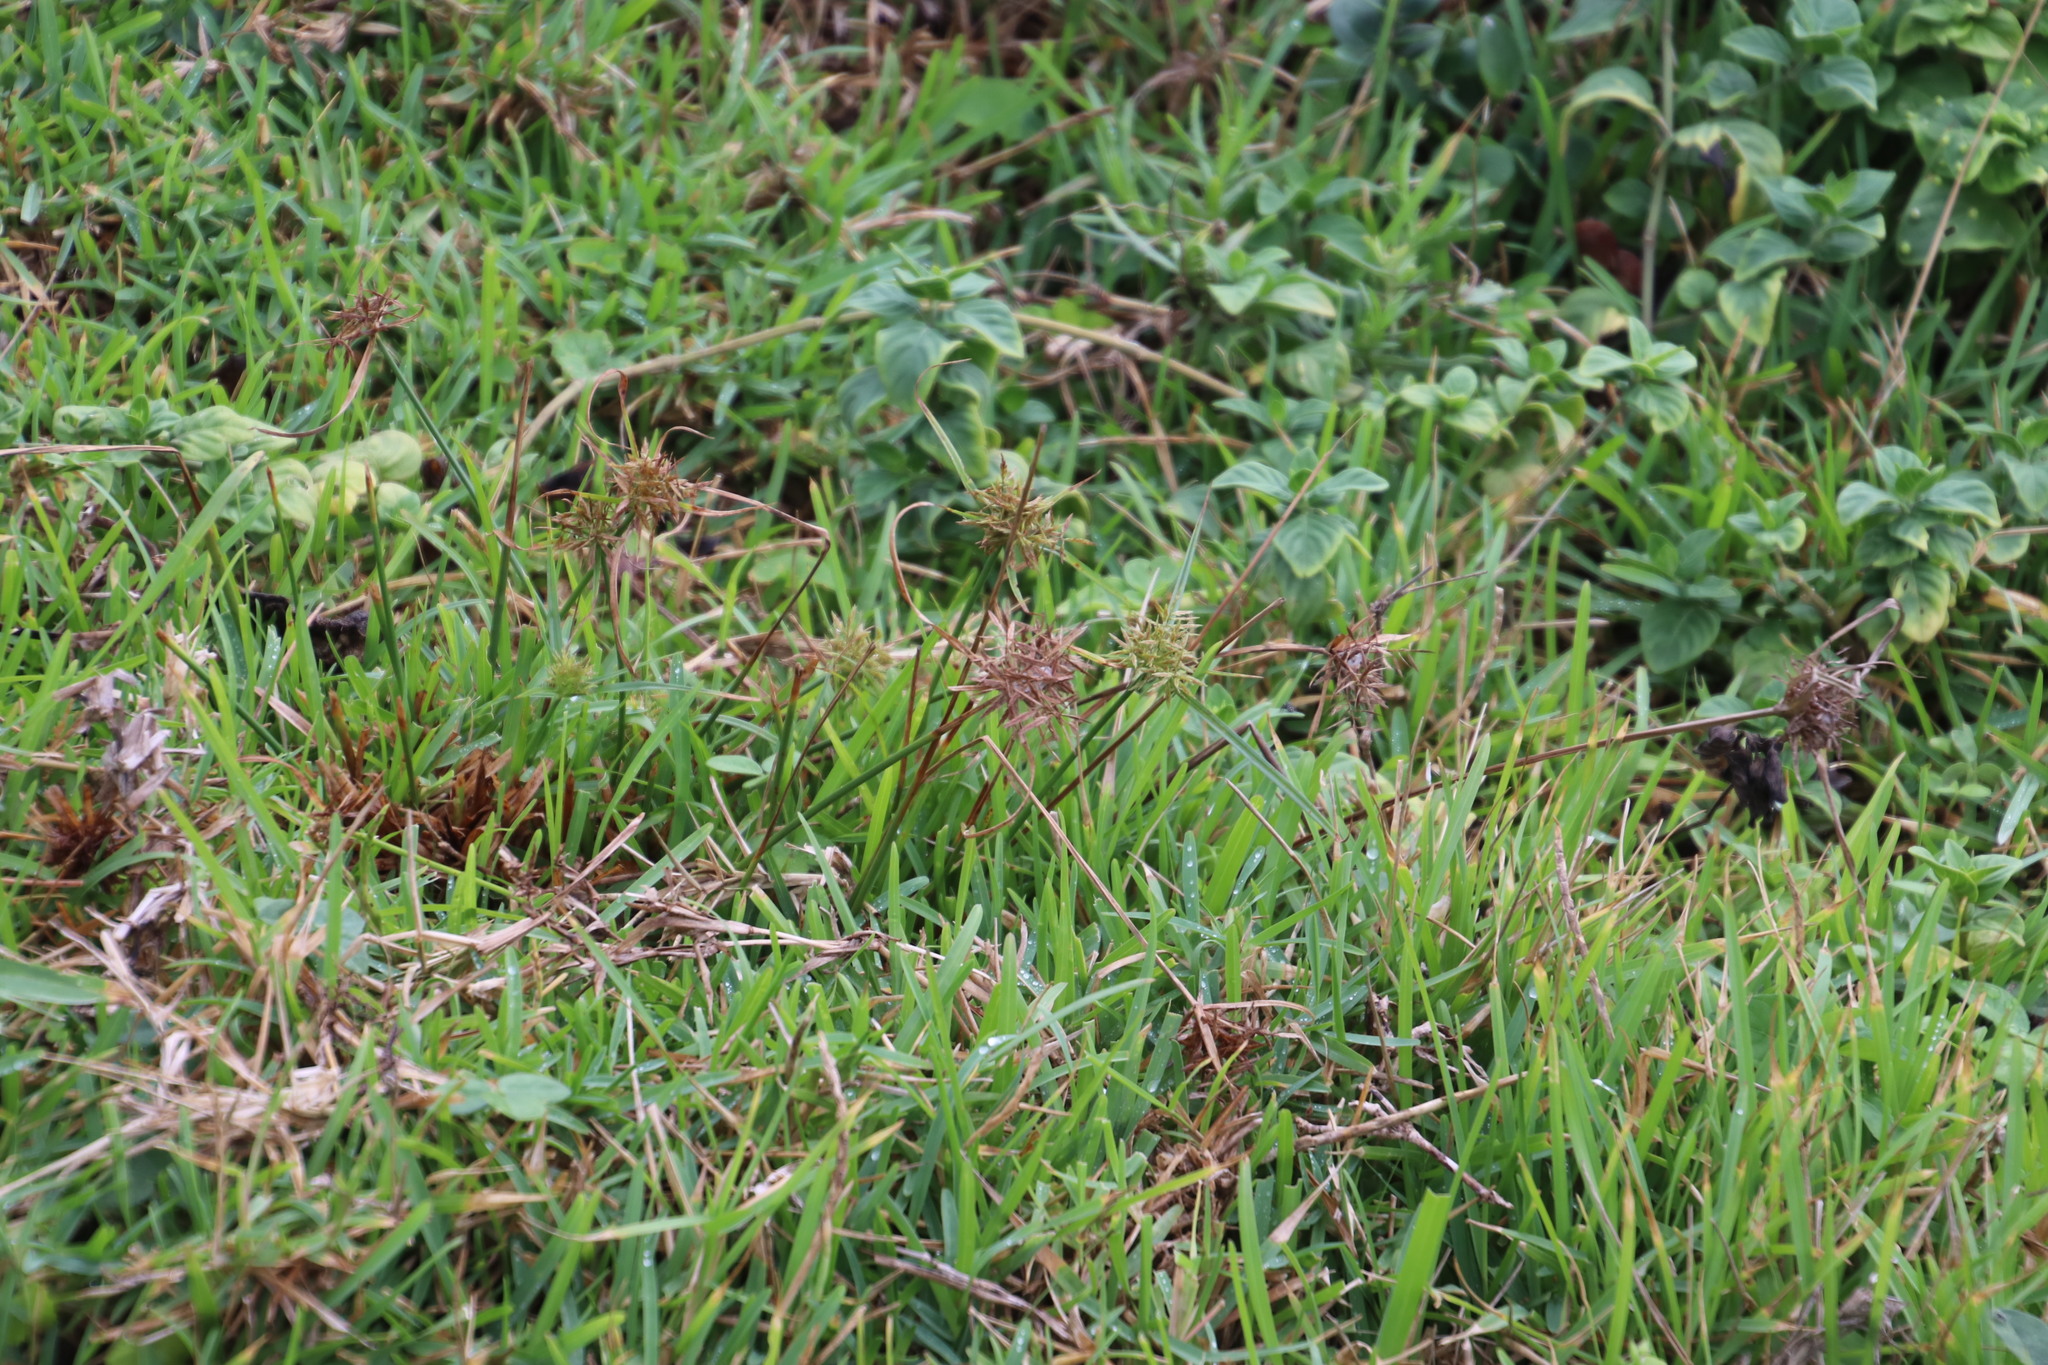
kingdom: Plantae
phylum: Tracheophyta
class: Liliopsida
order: Poales
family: Cyperaceae
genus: Cyperus
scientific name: Cyperus intactus
